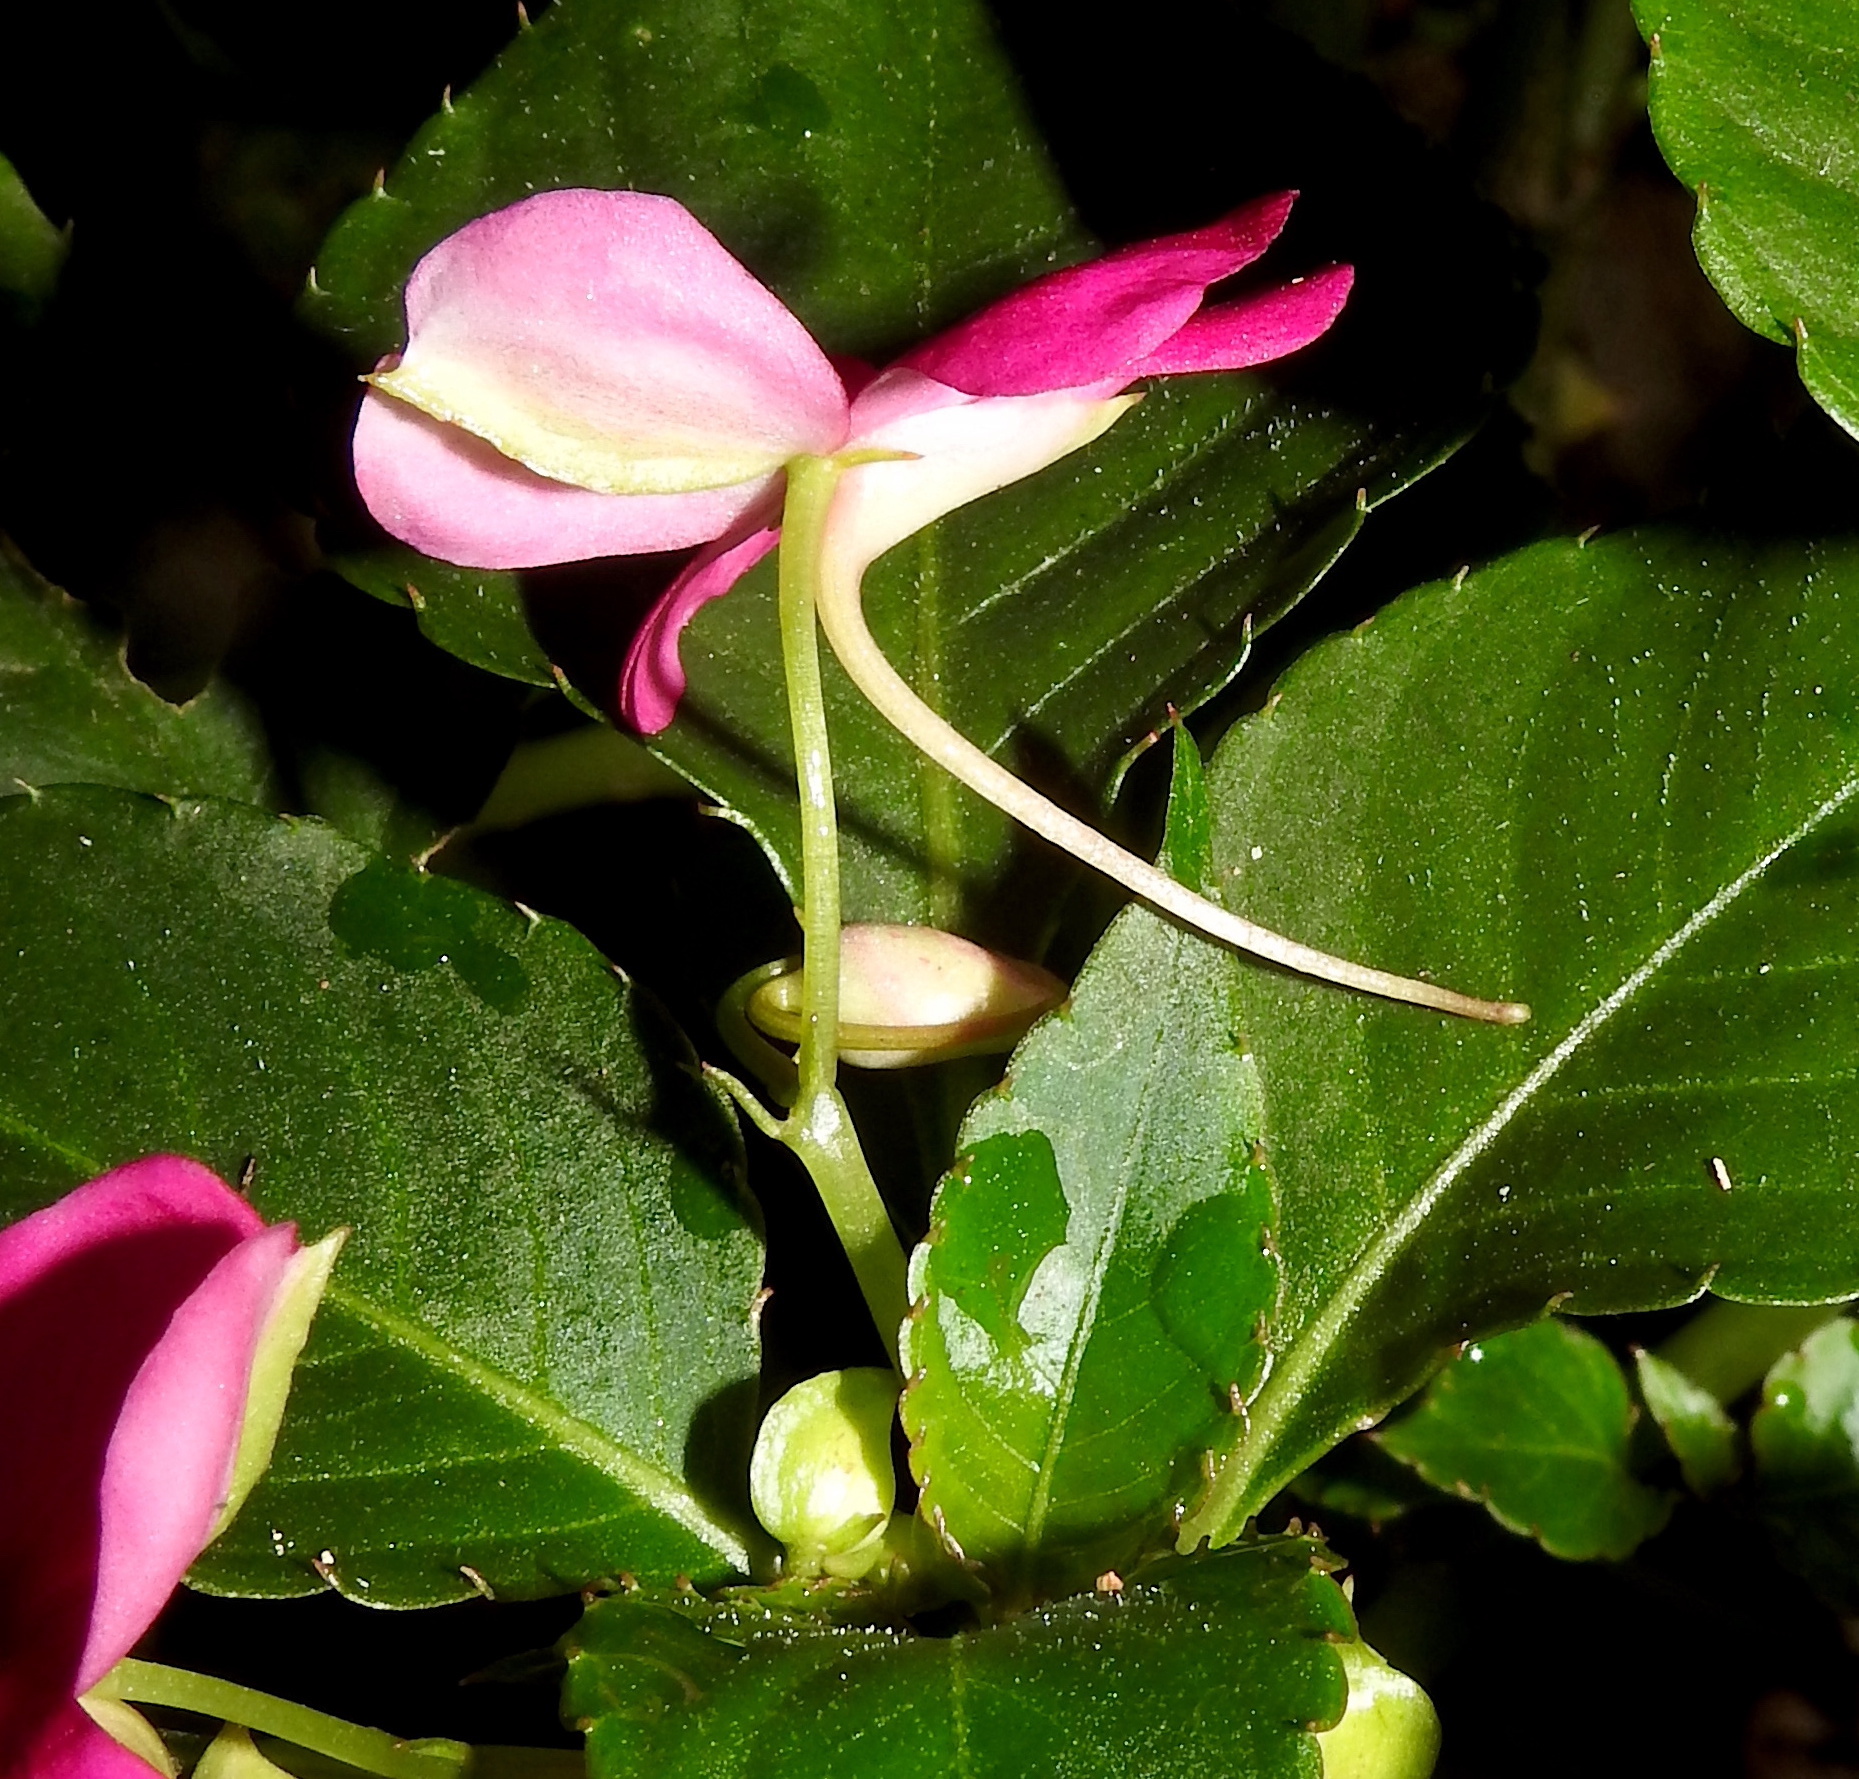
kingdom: Plantae
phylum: Tracheophyta
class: Magnoliopsida
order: Ericales
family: Balsaminaceae
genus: Impatiens
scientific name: Impatiens walleriana
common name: Buzzy lizzy
